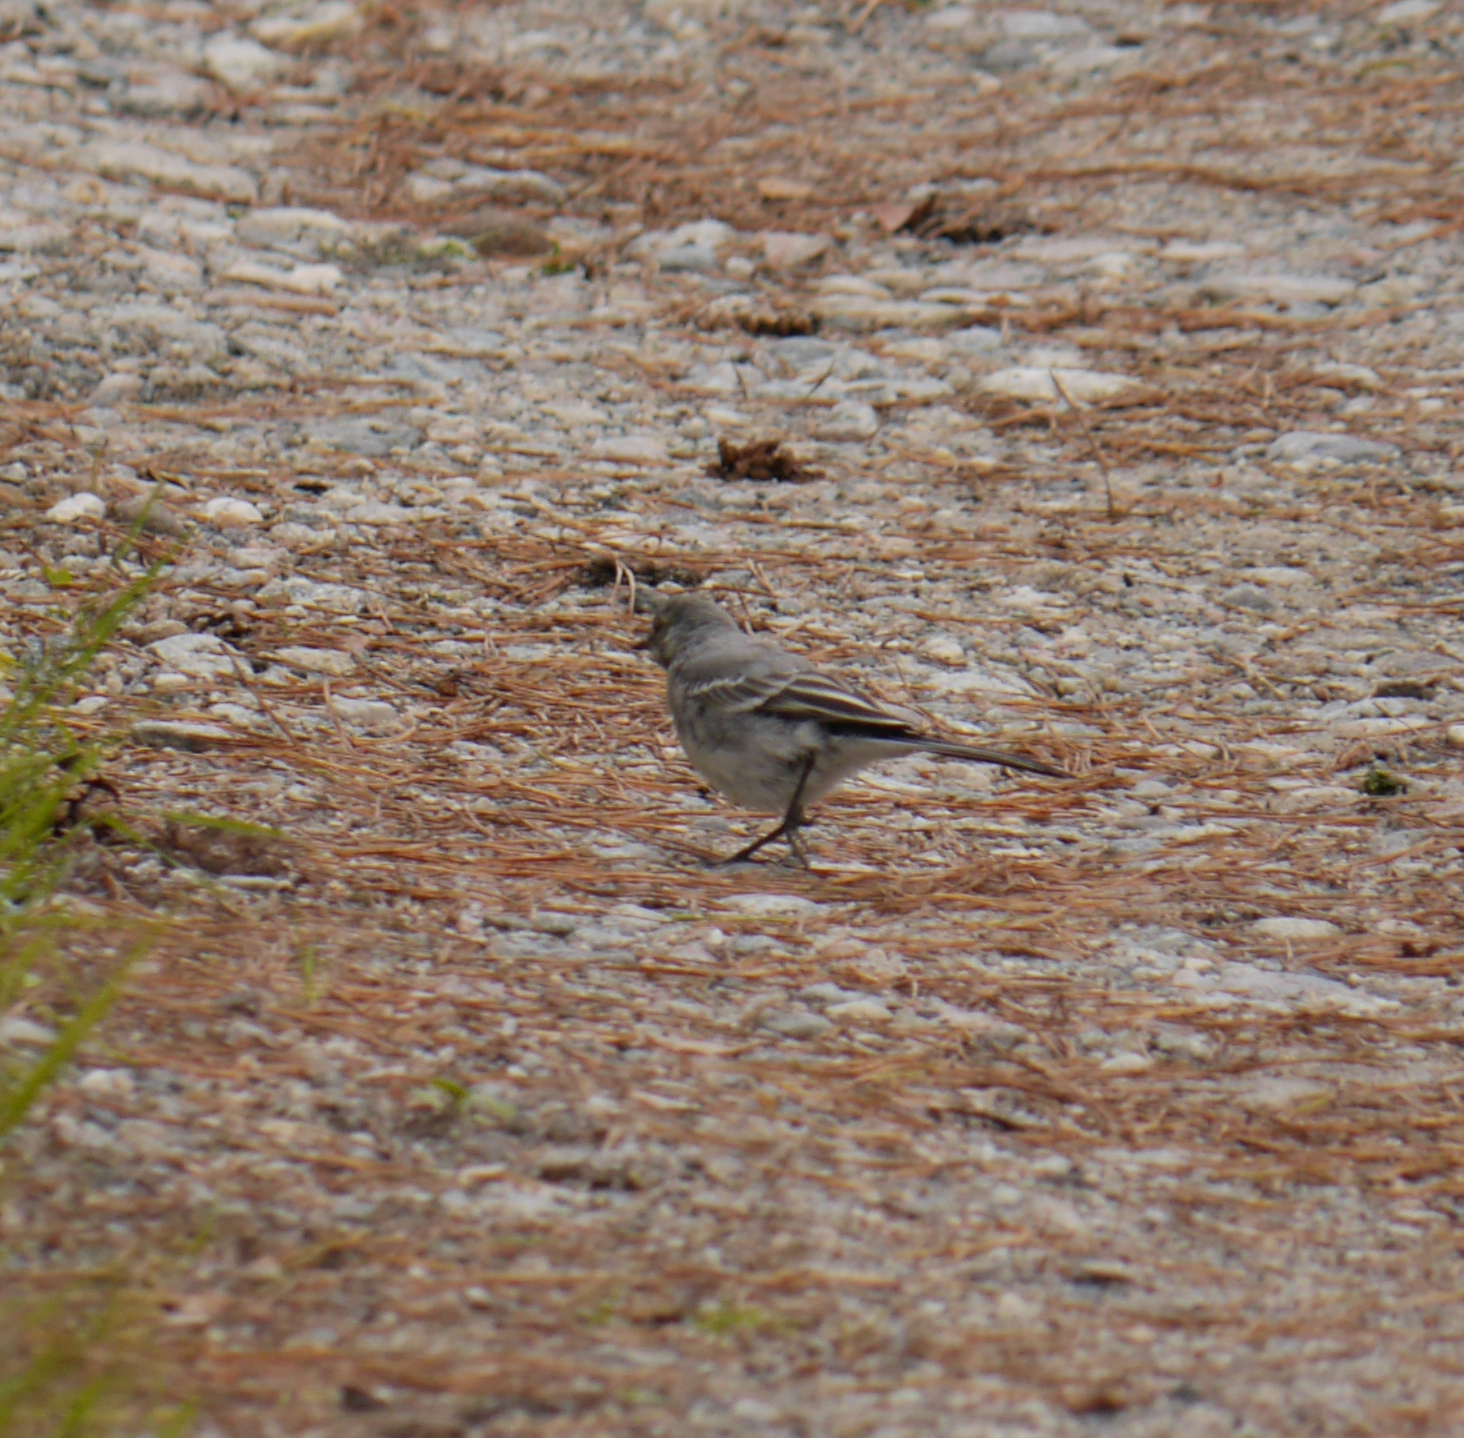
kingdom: Animalia
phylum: Chordata
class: Aves
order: Passeriformes
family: Motacillidae
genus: Motacilla
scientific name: Motacilla alba
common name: White wagtail
